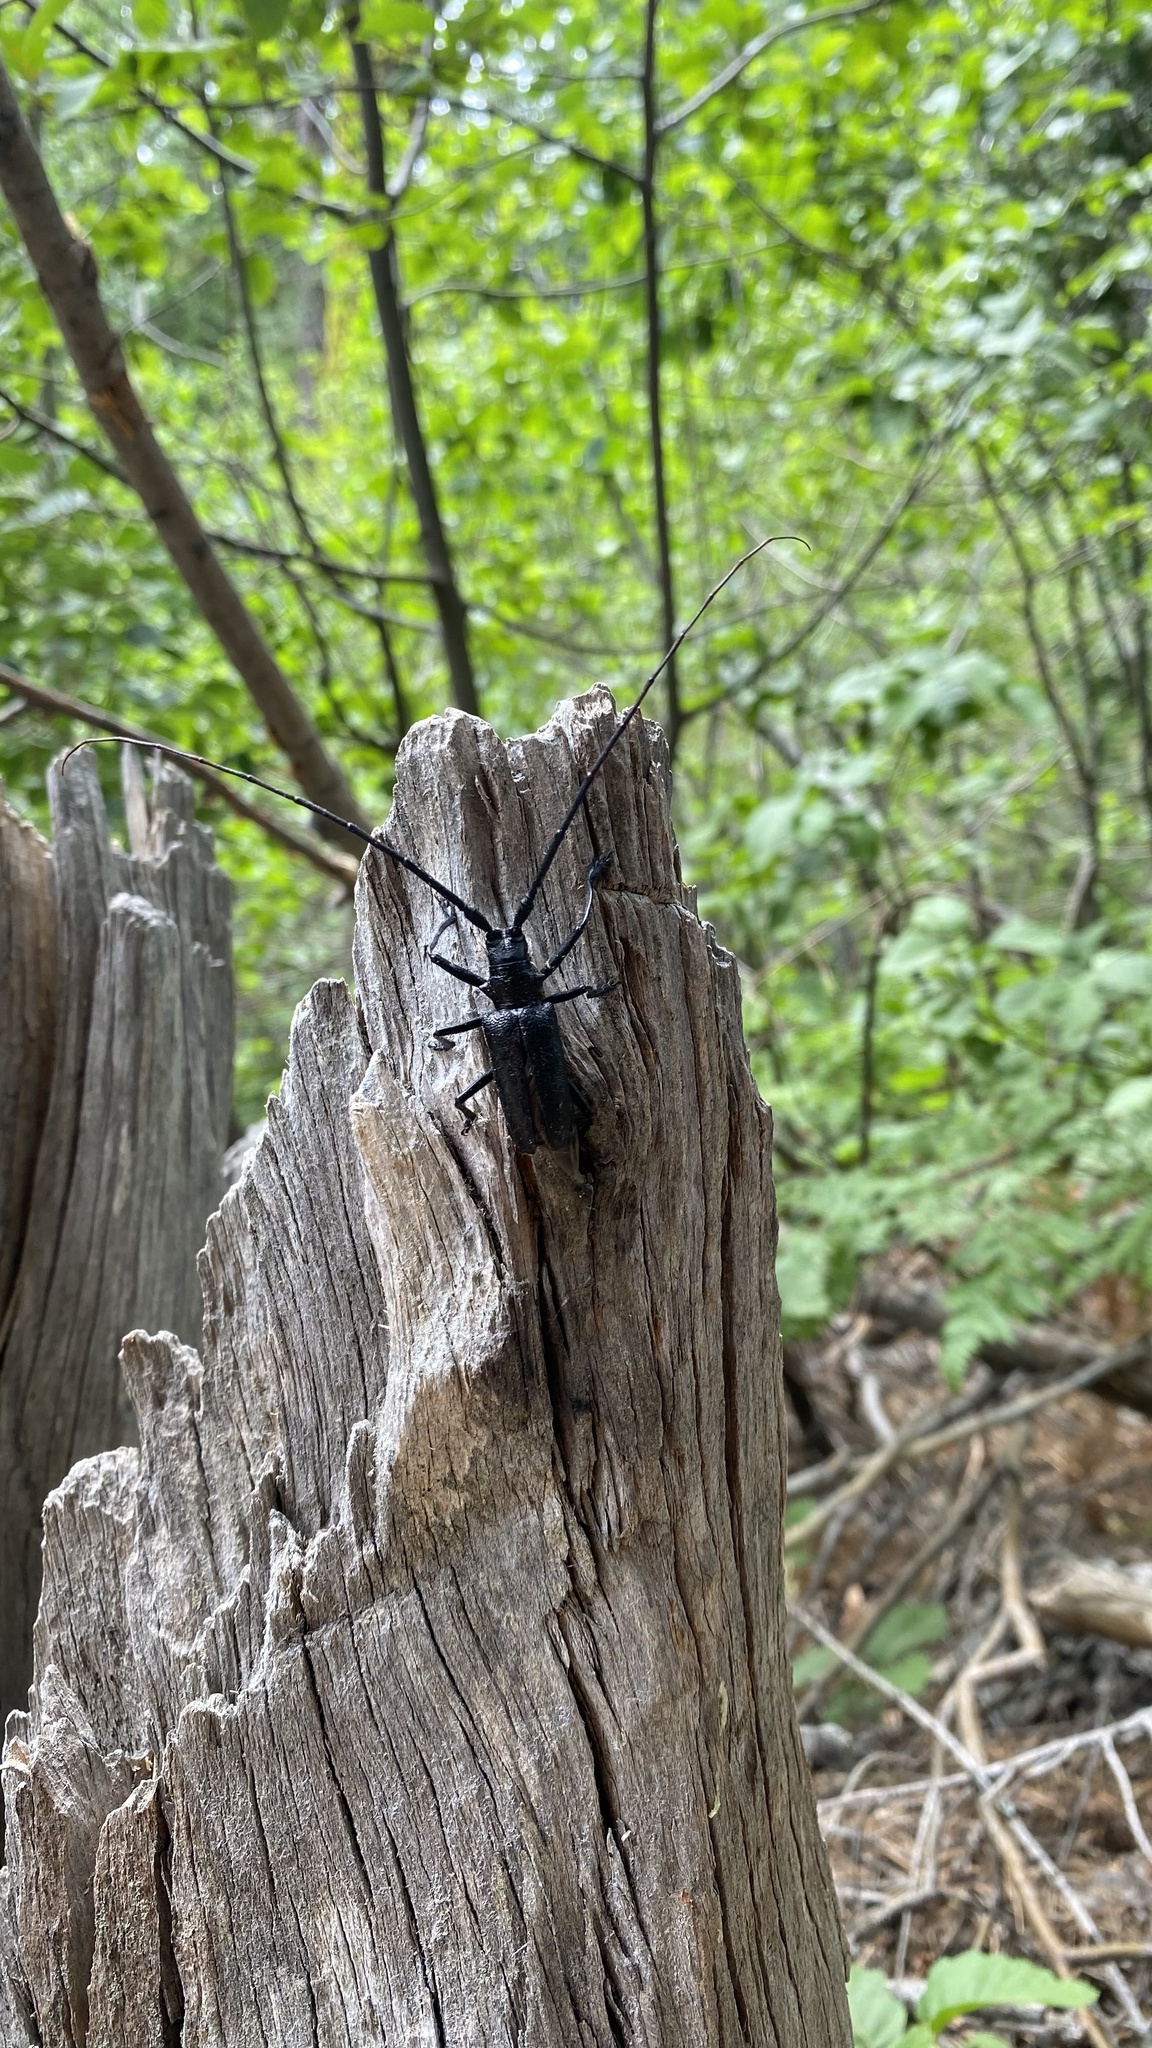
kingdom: Animalia
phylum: Arthropoda
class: Insecta
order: Coleoptera
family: Cerambycidae
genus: Monochamus
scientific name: Monochamus scutellatus
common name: White-spotted sawyer beetle
